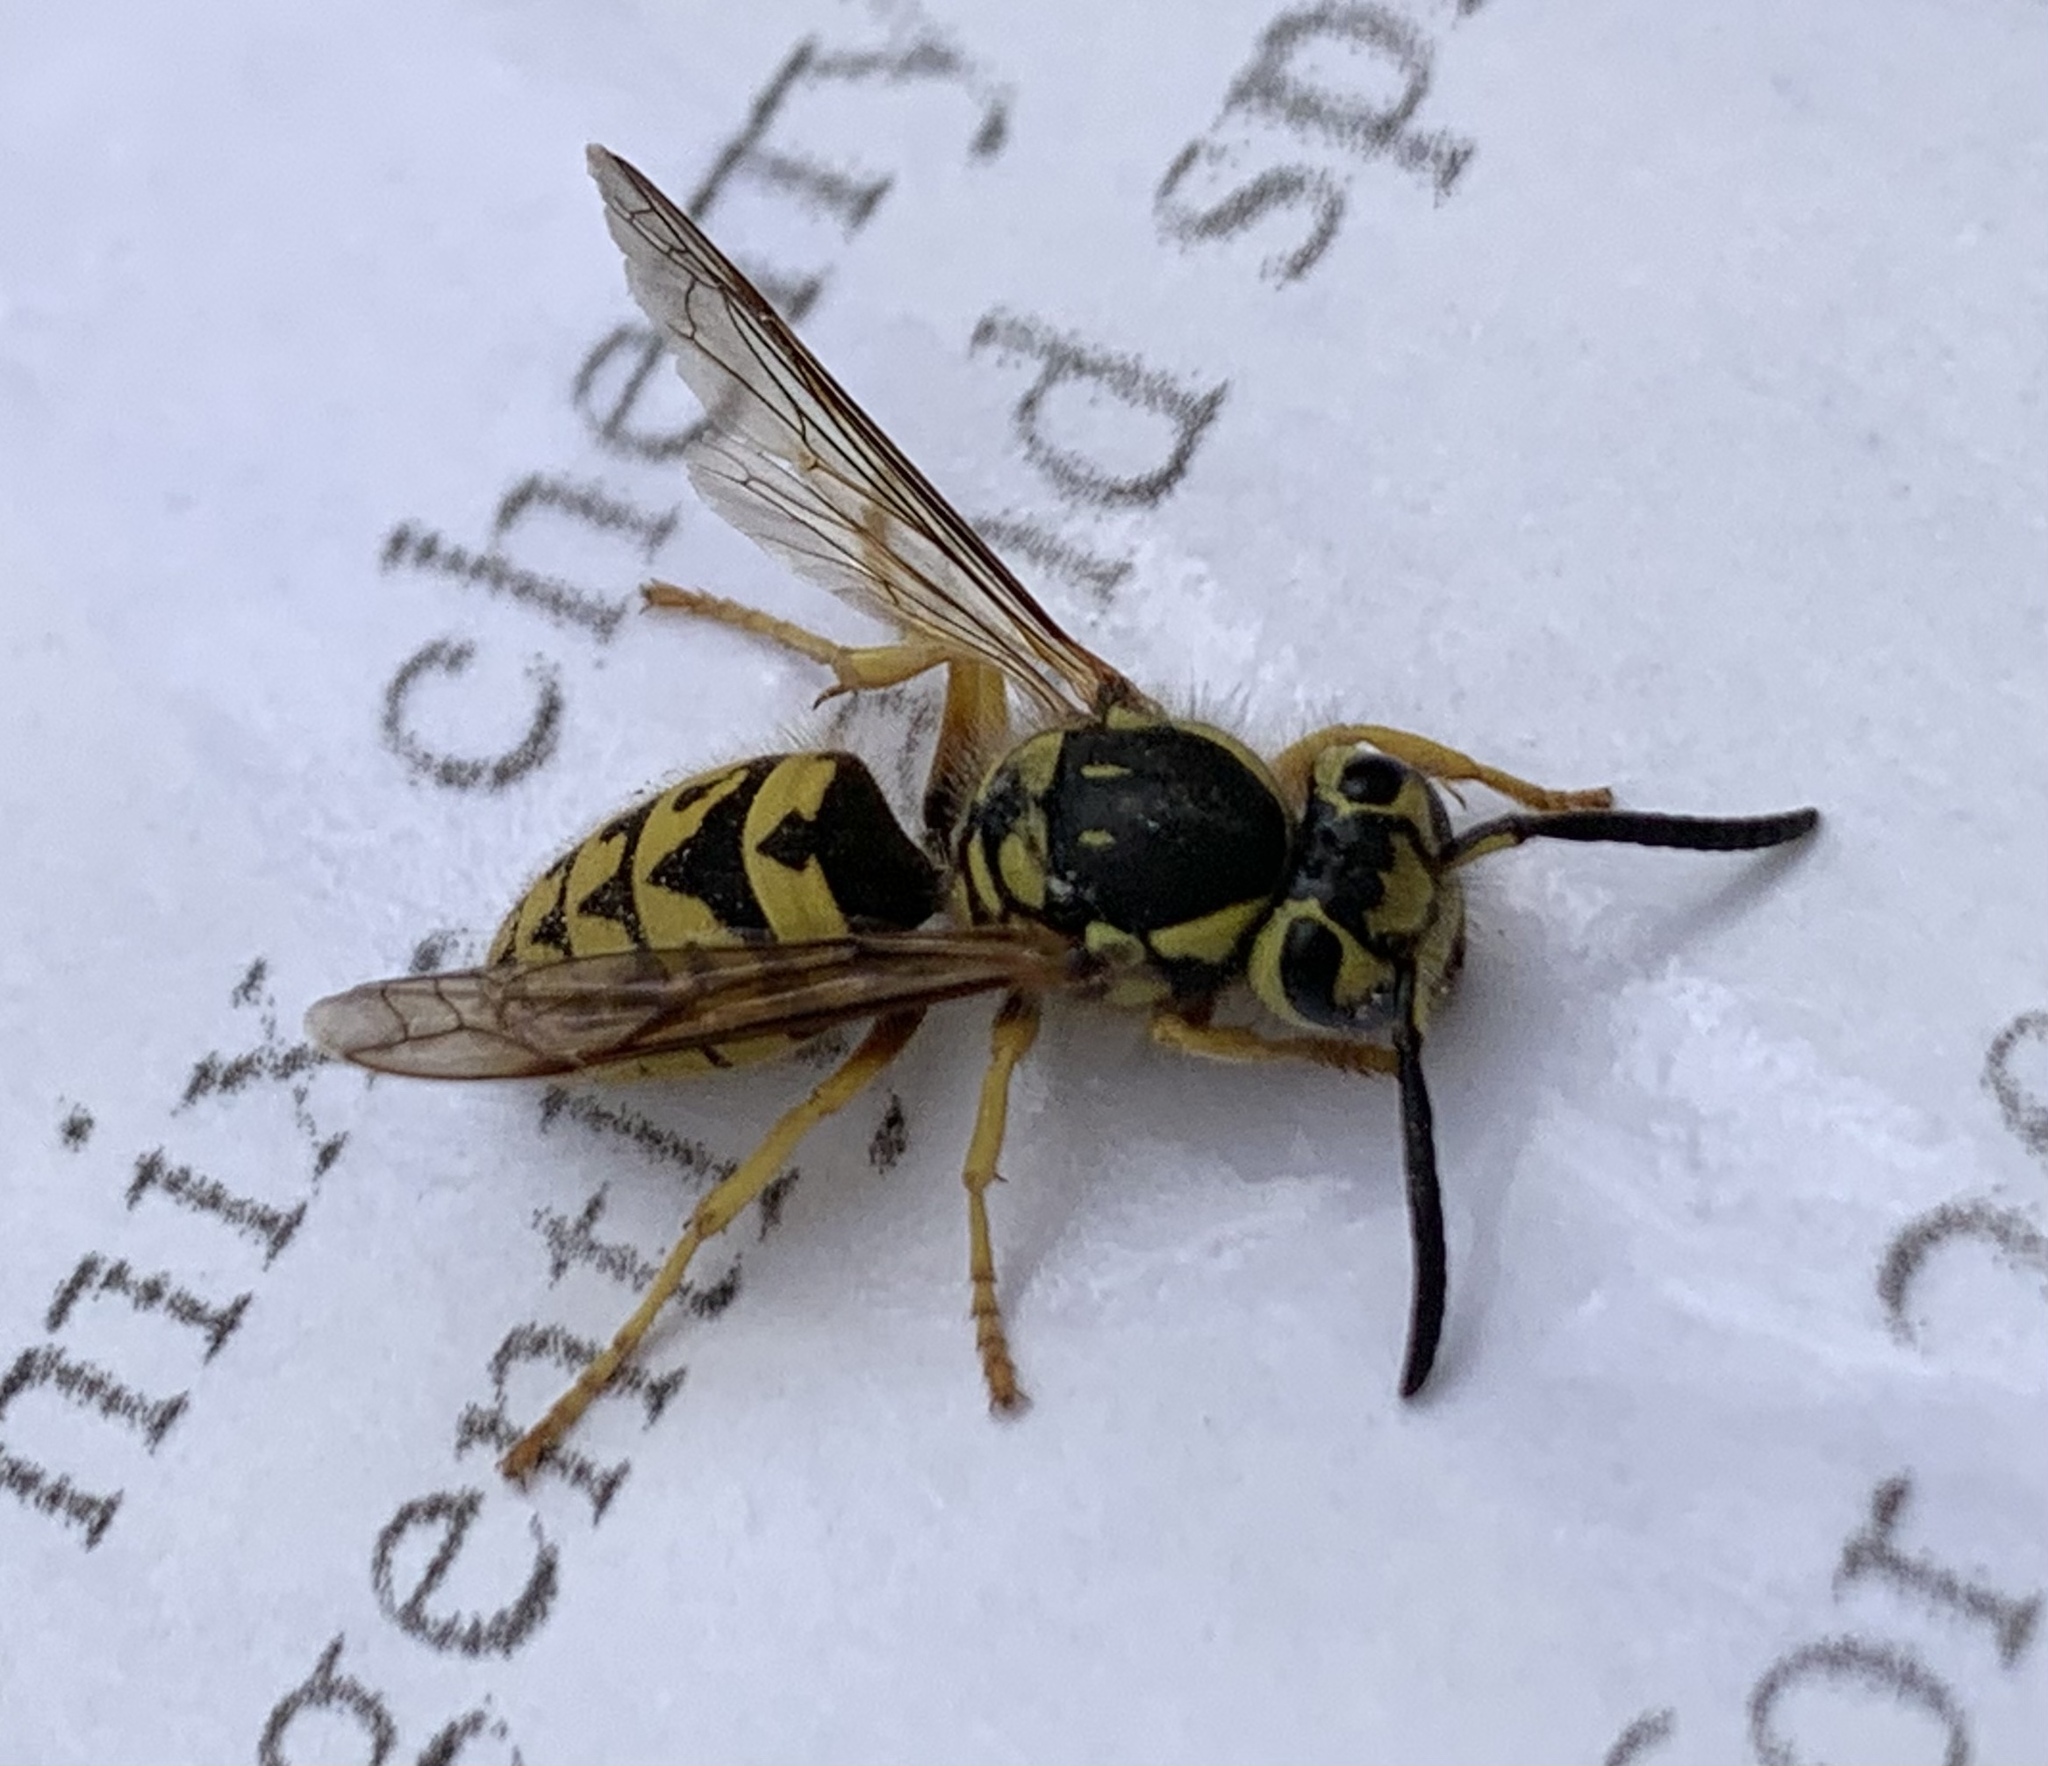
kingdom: Animalia
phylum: Arthropoda
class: Insecta
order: Hymenoptera
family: Vespidae
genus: Vespula
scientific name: Vespula pensylvanica
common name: Western yellowjacket
